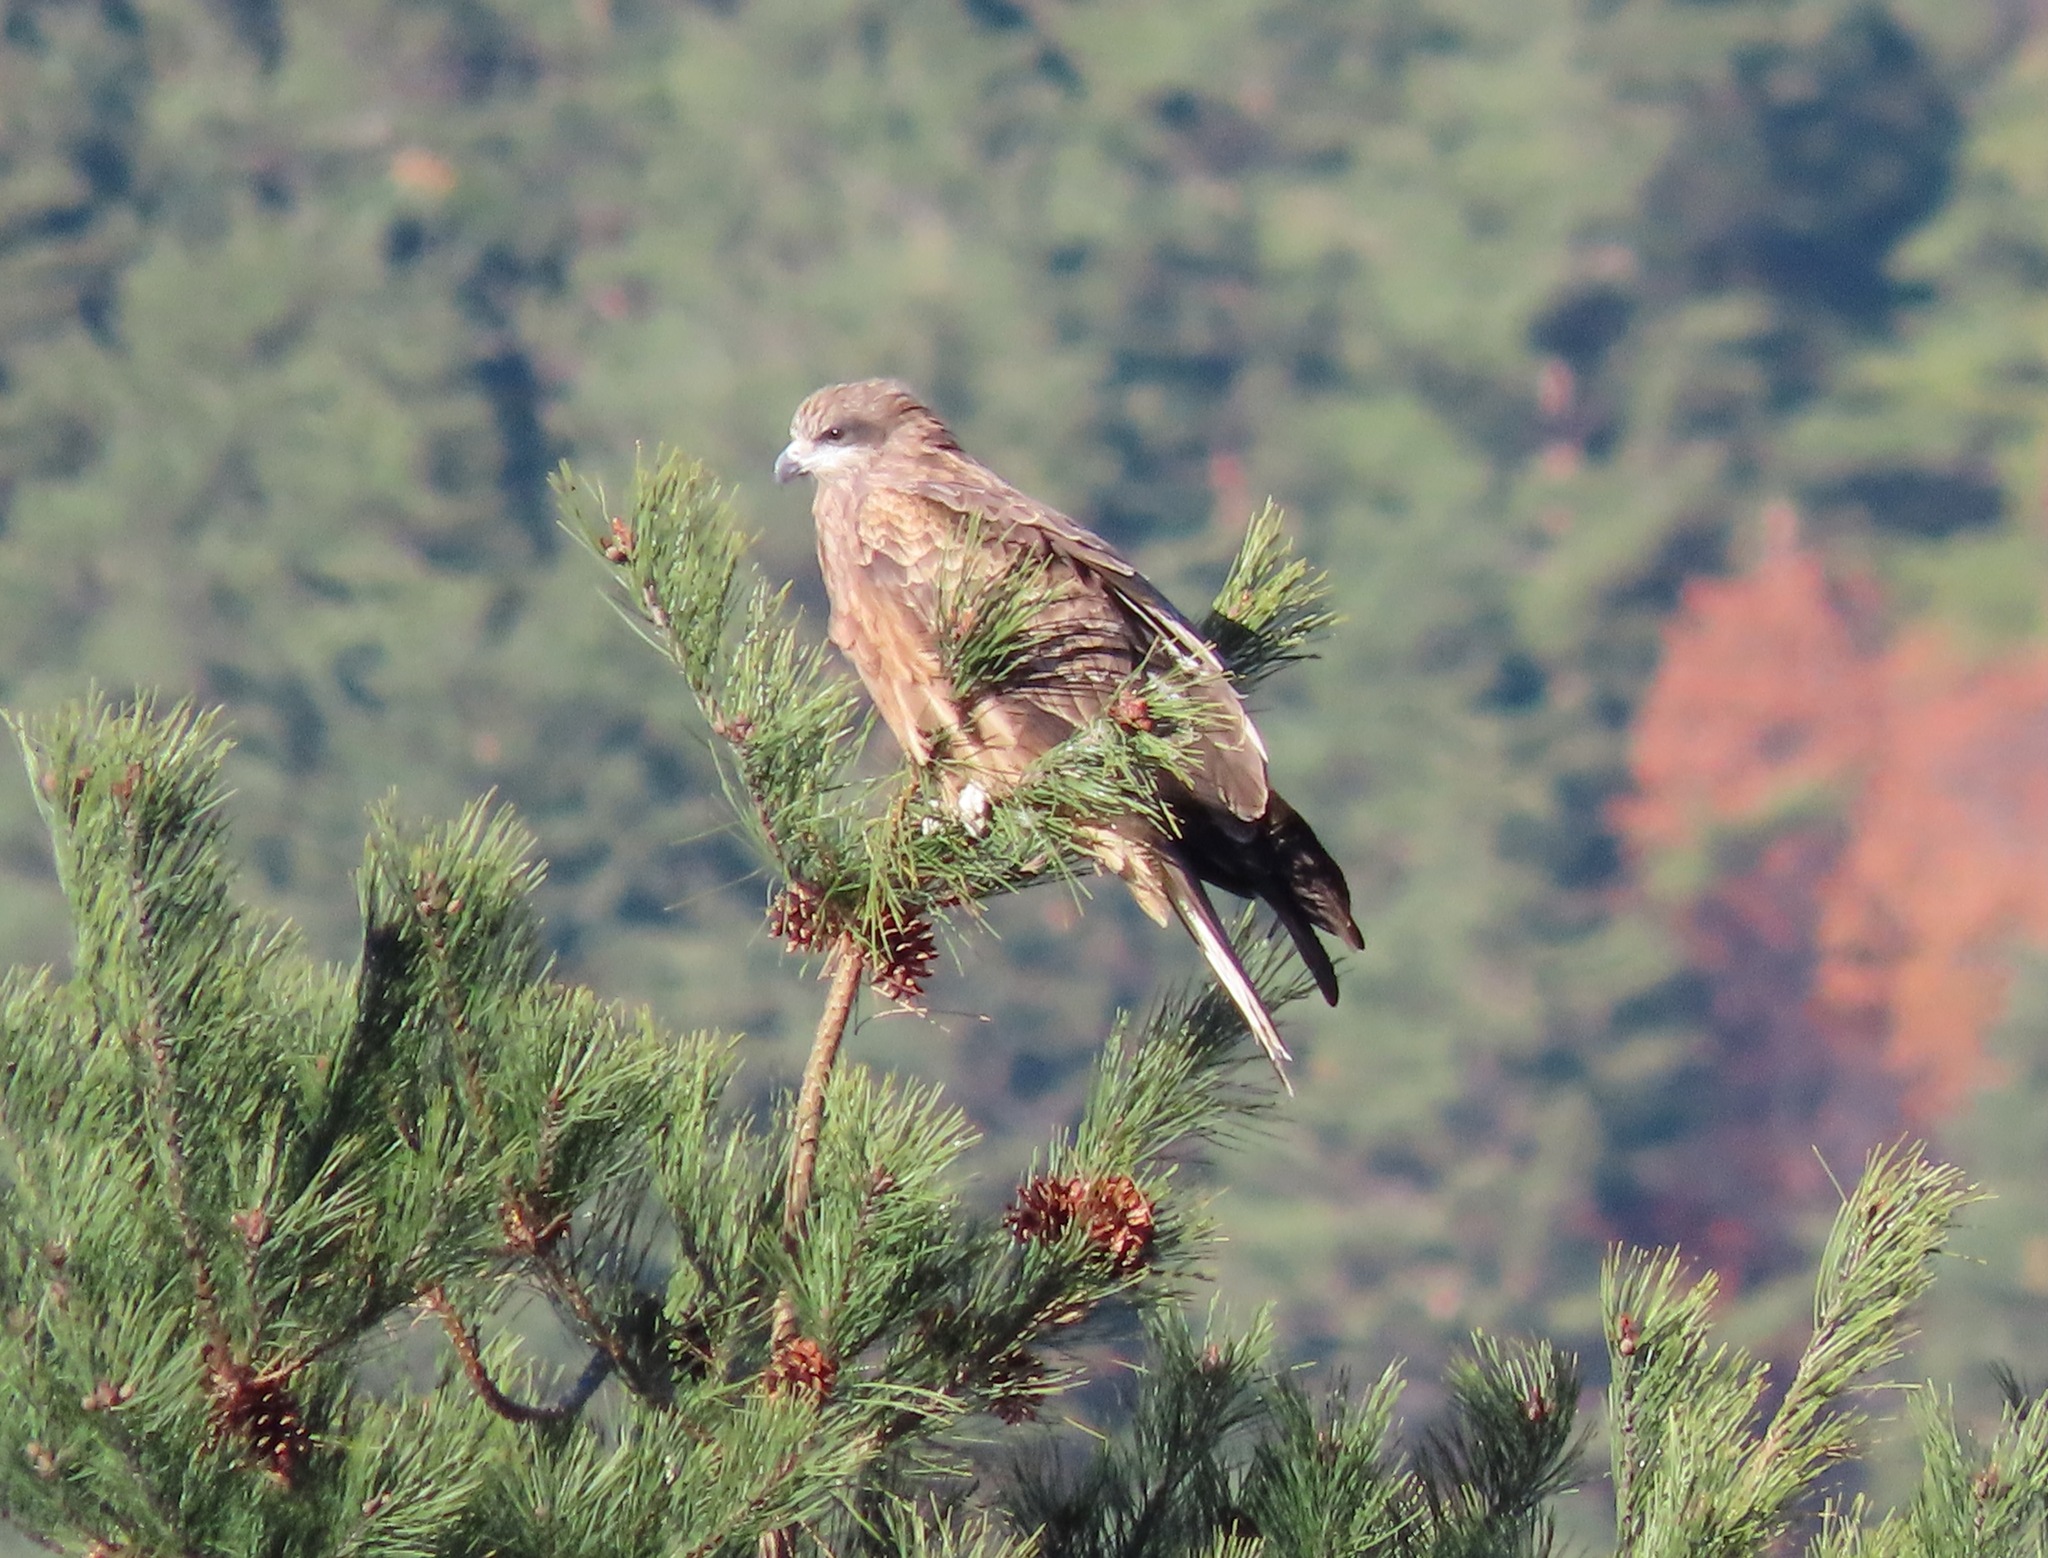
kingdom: Animalia
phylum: Chordata
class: Aves
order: Accipitriformes
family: Accipitridae
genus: Milvus
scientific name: Milvus migrans
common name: Black kite
